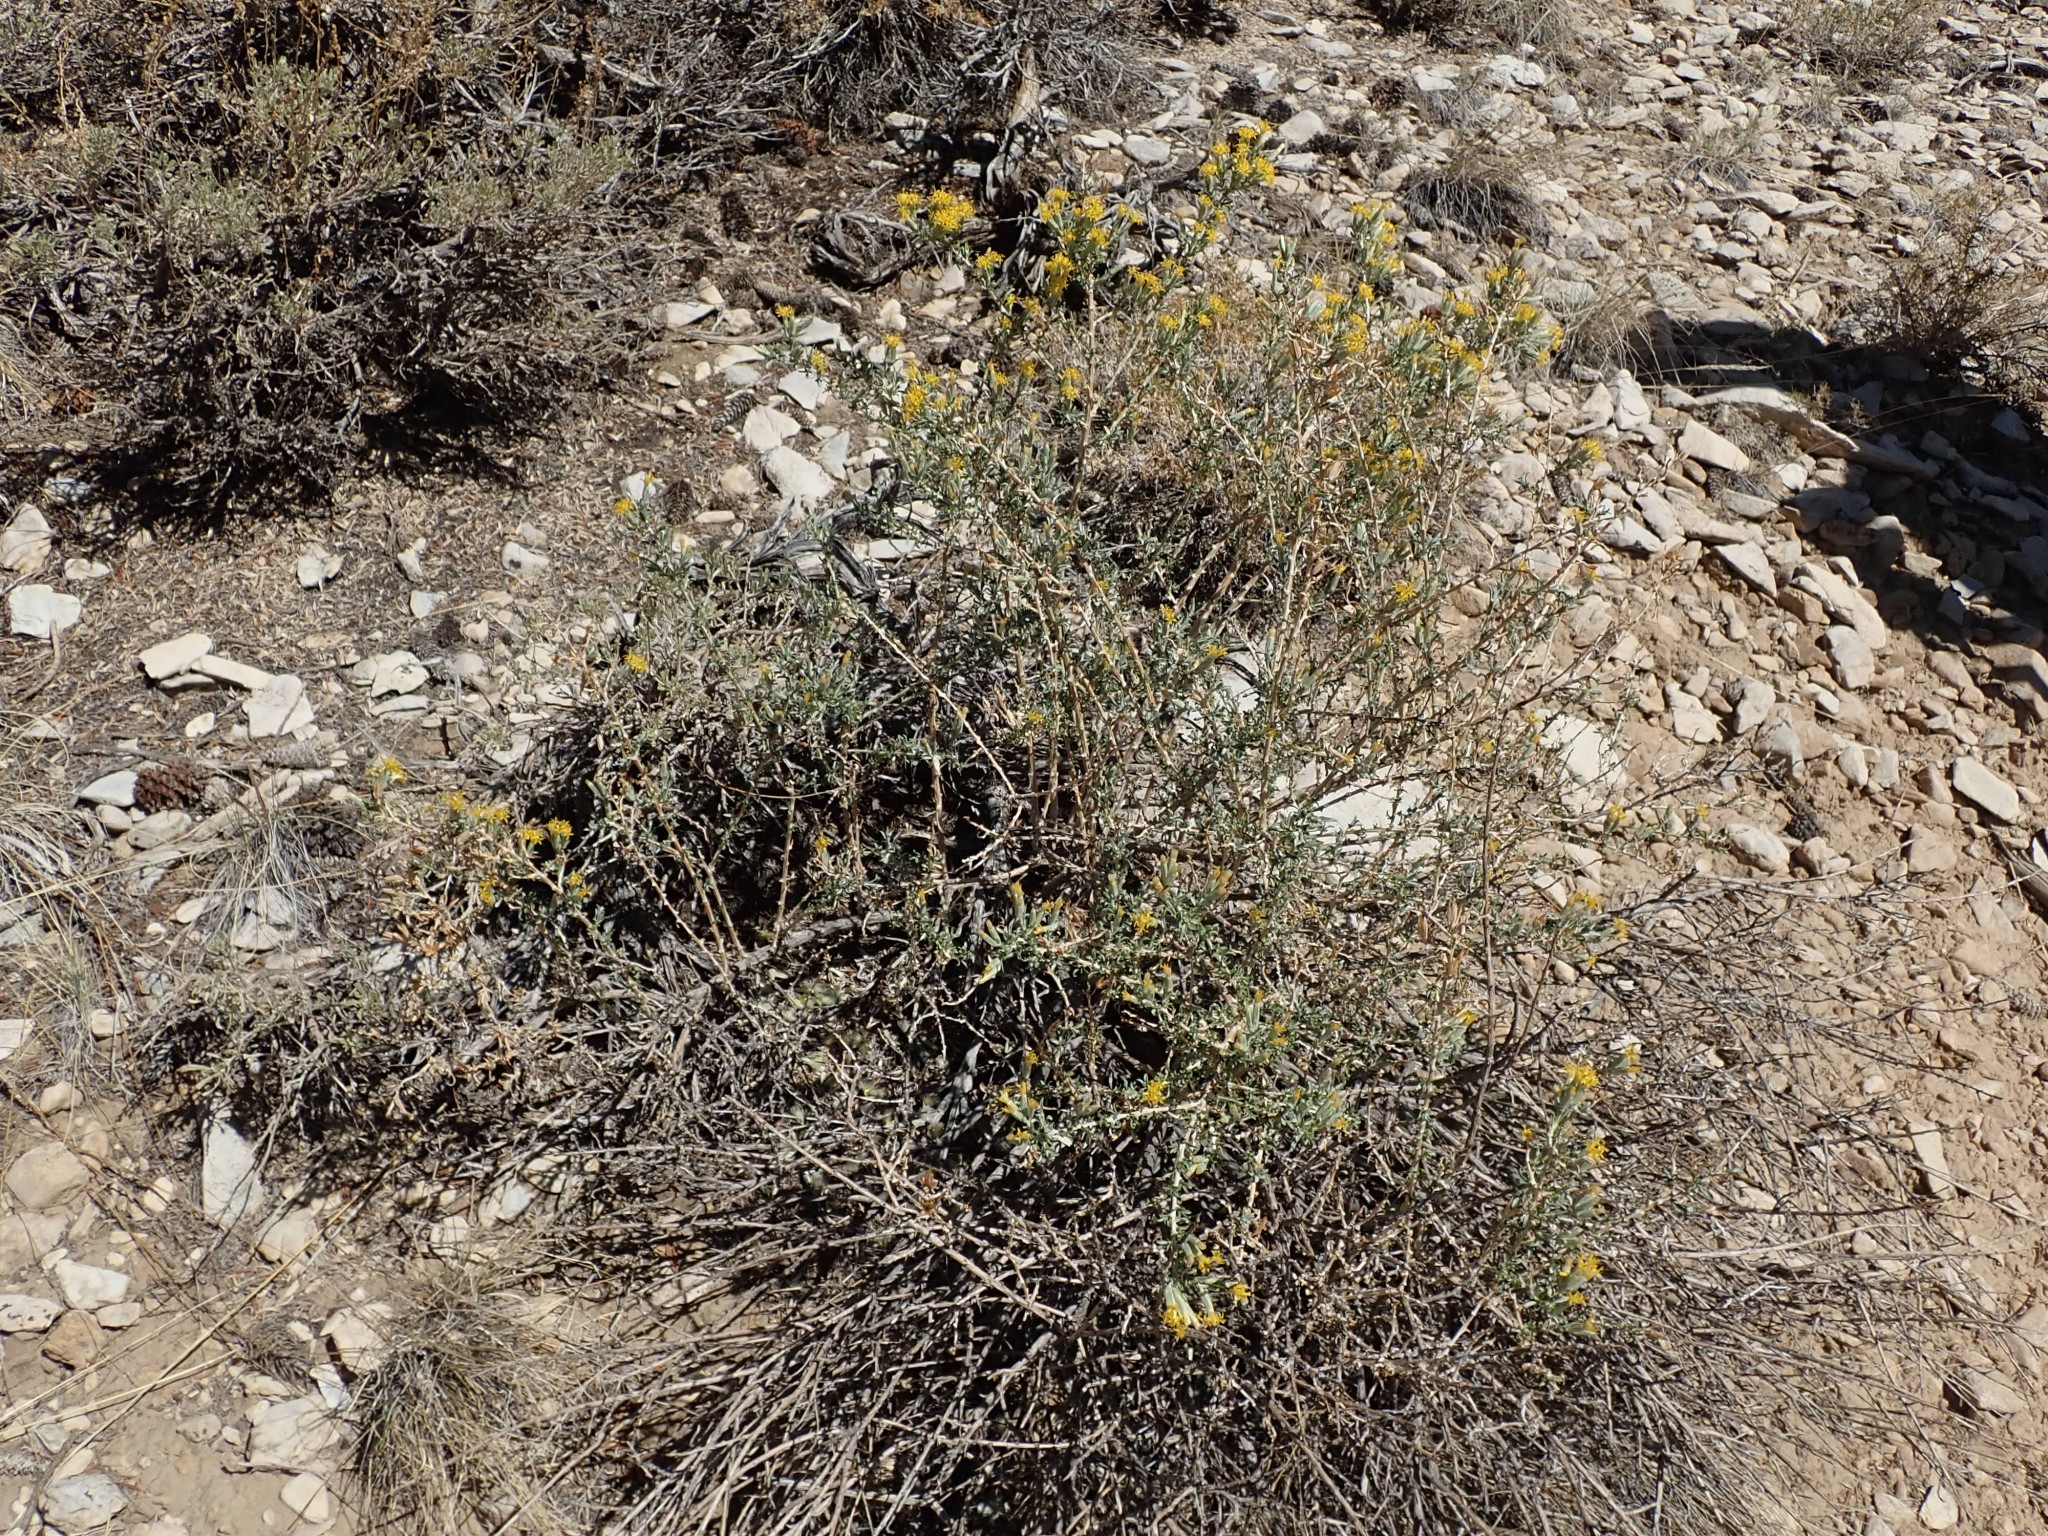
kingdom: Plantae
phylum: Tracheophyta
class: Magnoliopsida
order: Asterales
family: Asteraceae
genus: Tetradymia
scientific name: Tetradymia canescens
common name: Spineless horsebrush
